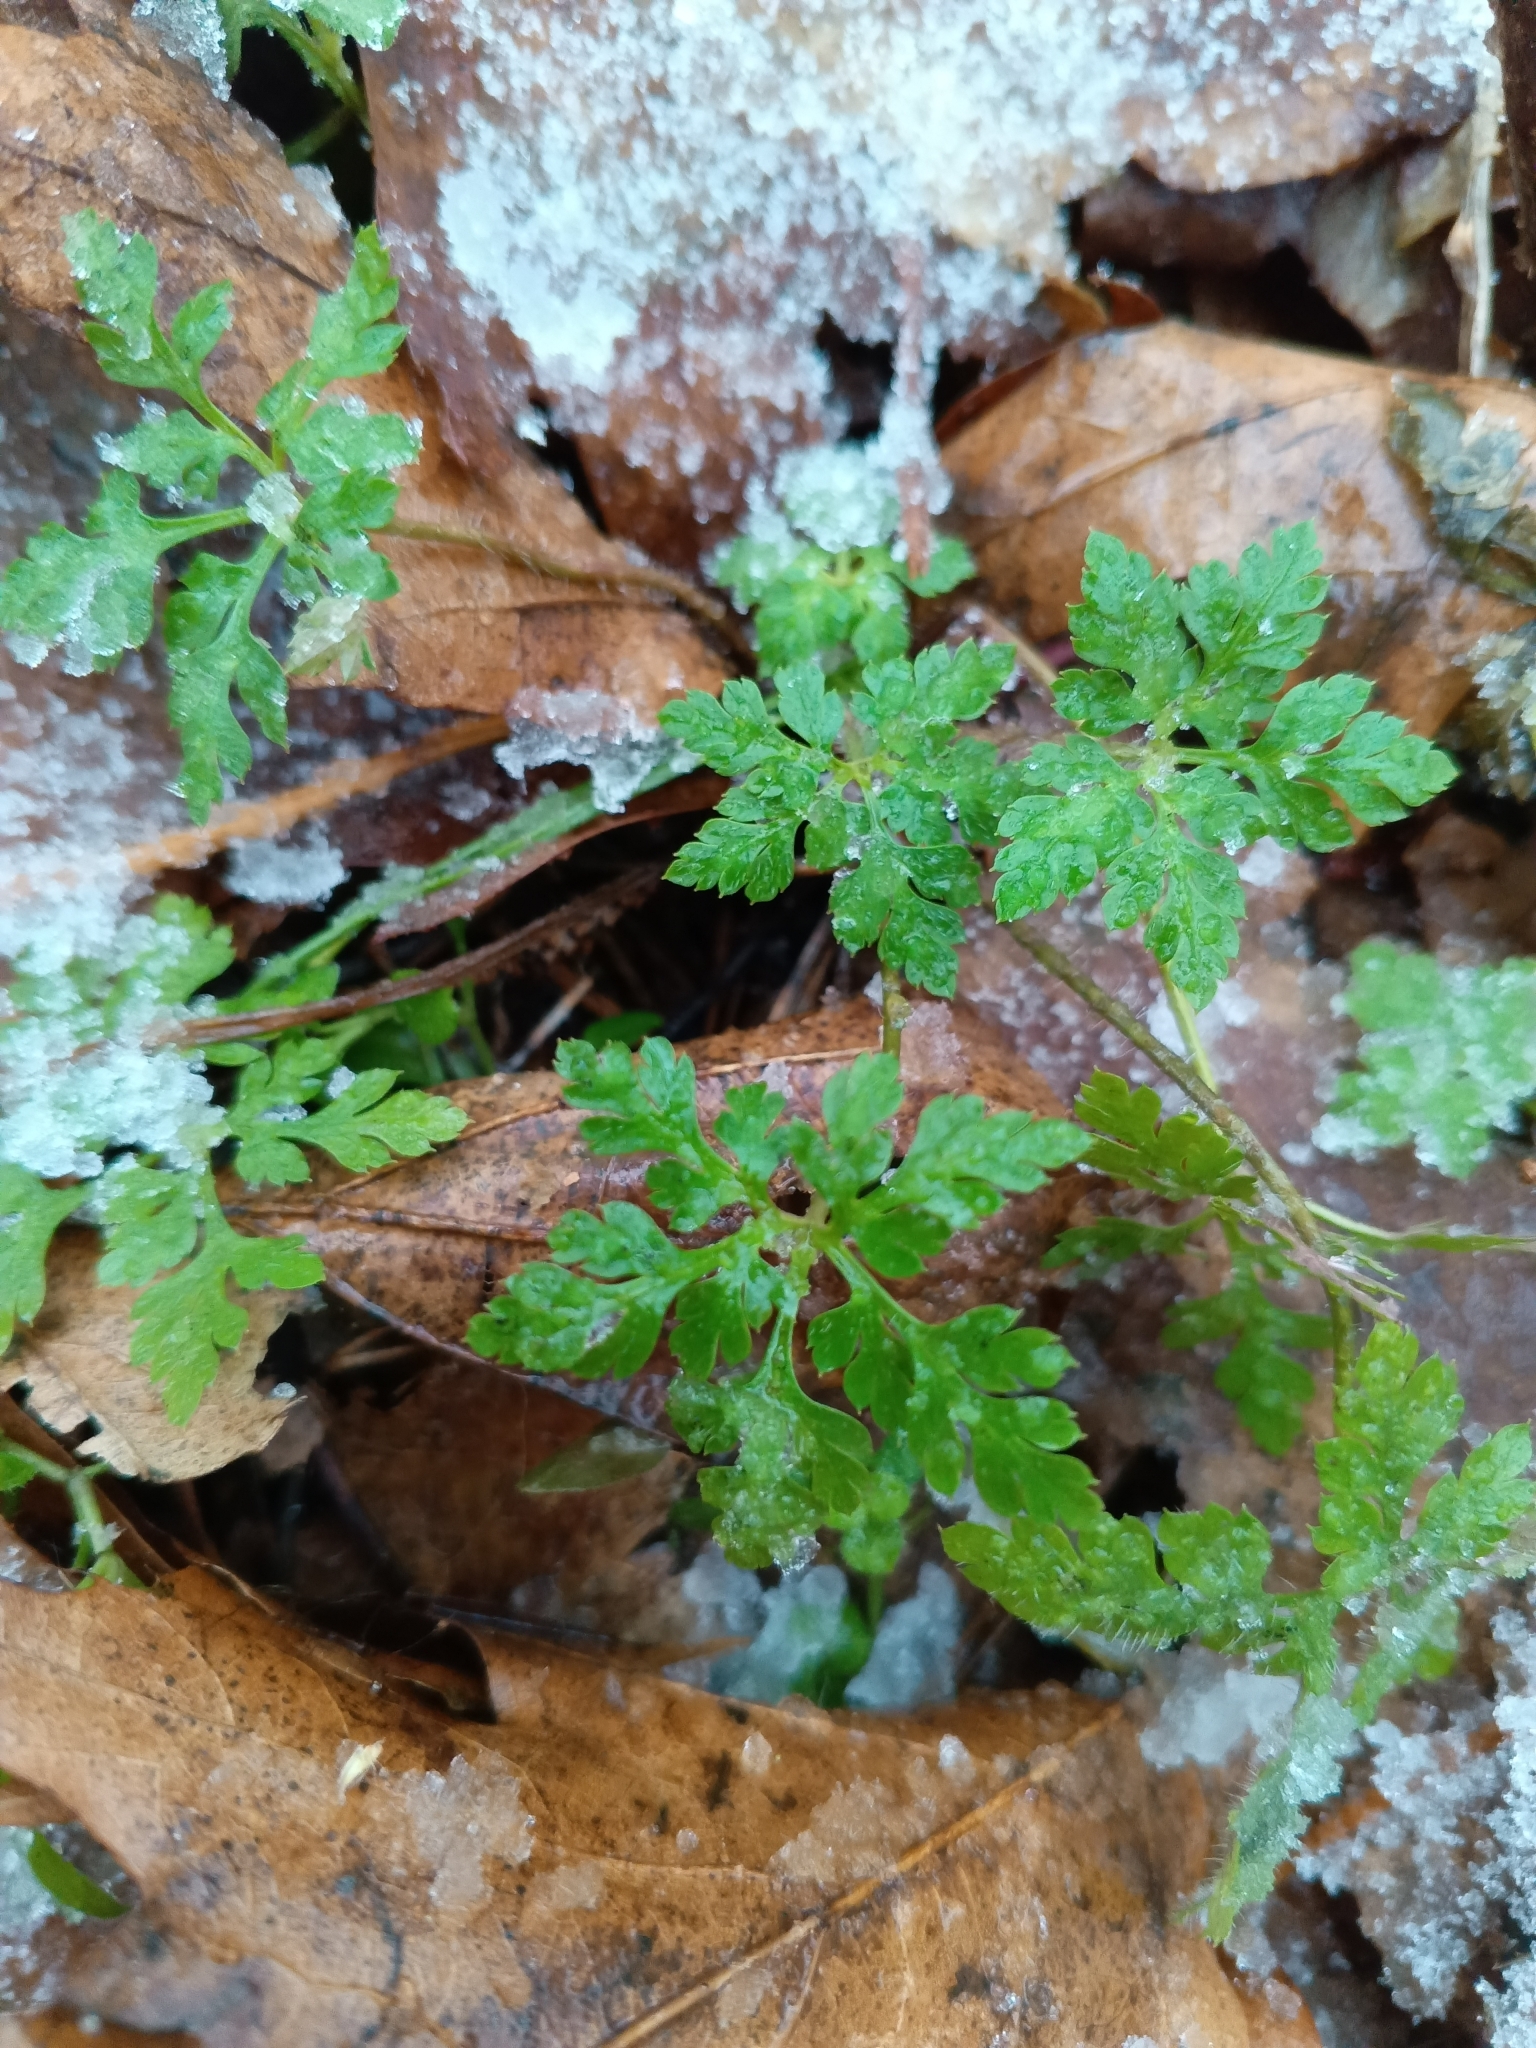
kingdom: Plantae
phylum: Tracheophyta
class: Magnoliopsida
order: Geraniales
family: Geraniaceae
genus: Geranium
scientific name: Geranium robertianum
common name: Herb-robert
